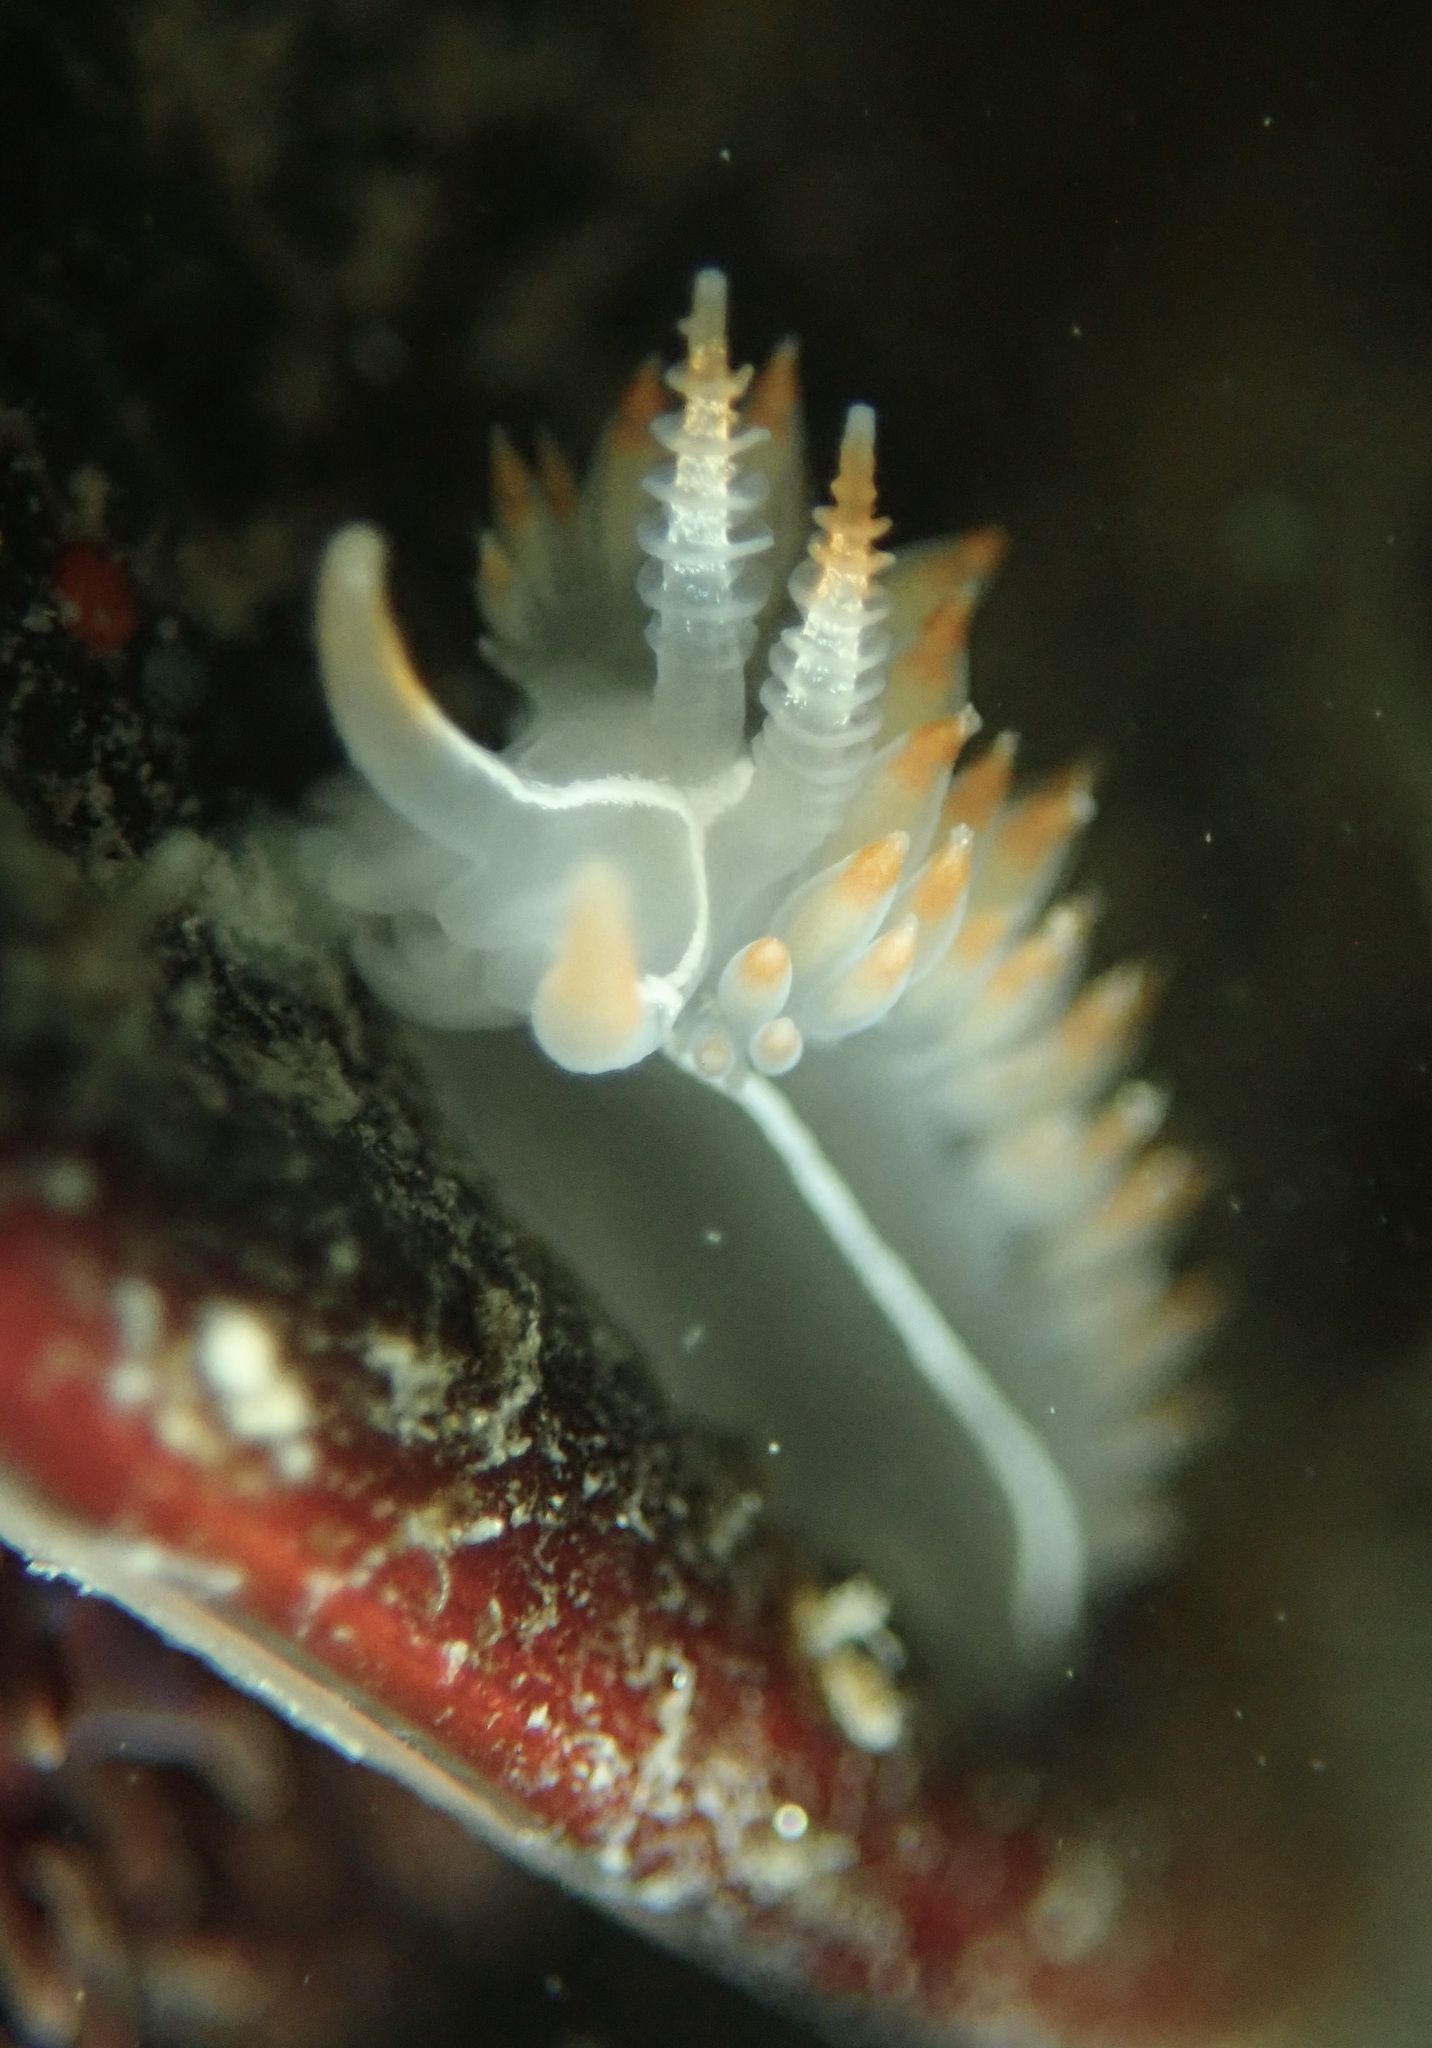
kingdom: Animalia
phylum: Mollusca
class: Gastropoda
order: Nudibranchia
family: Coryphellidae
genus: Coryphella
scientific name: Coryphella trilineata
